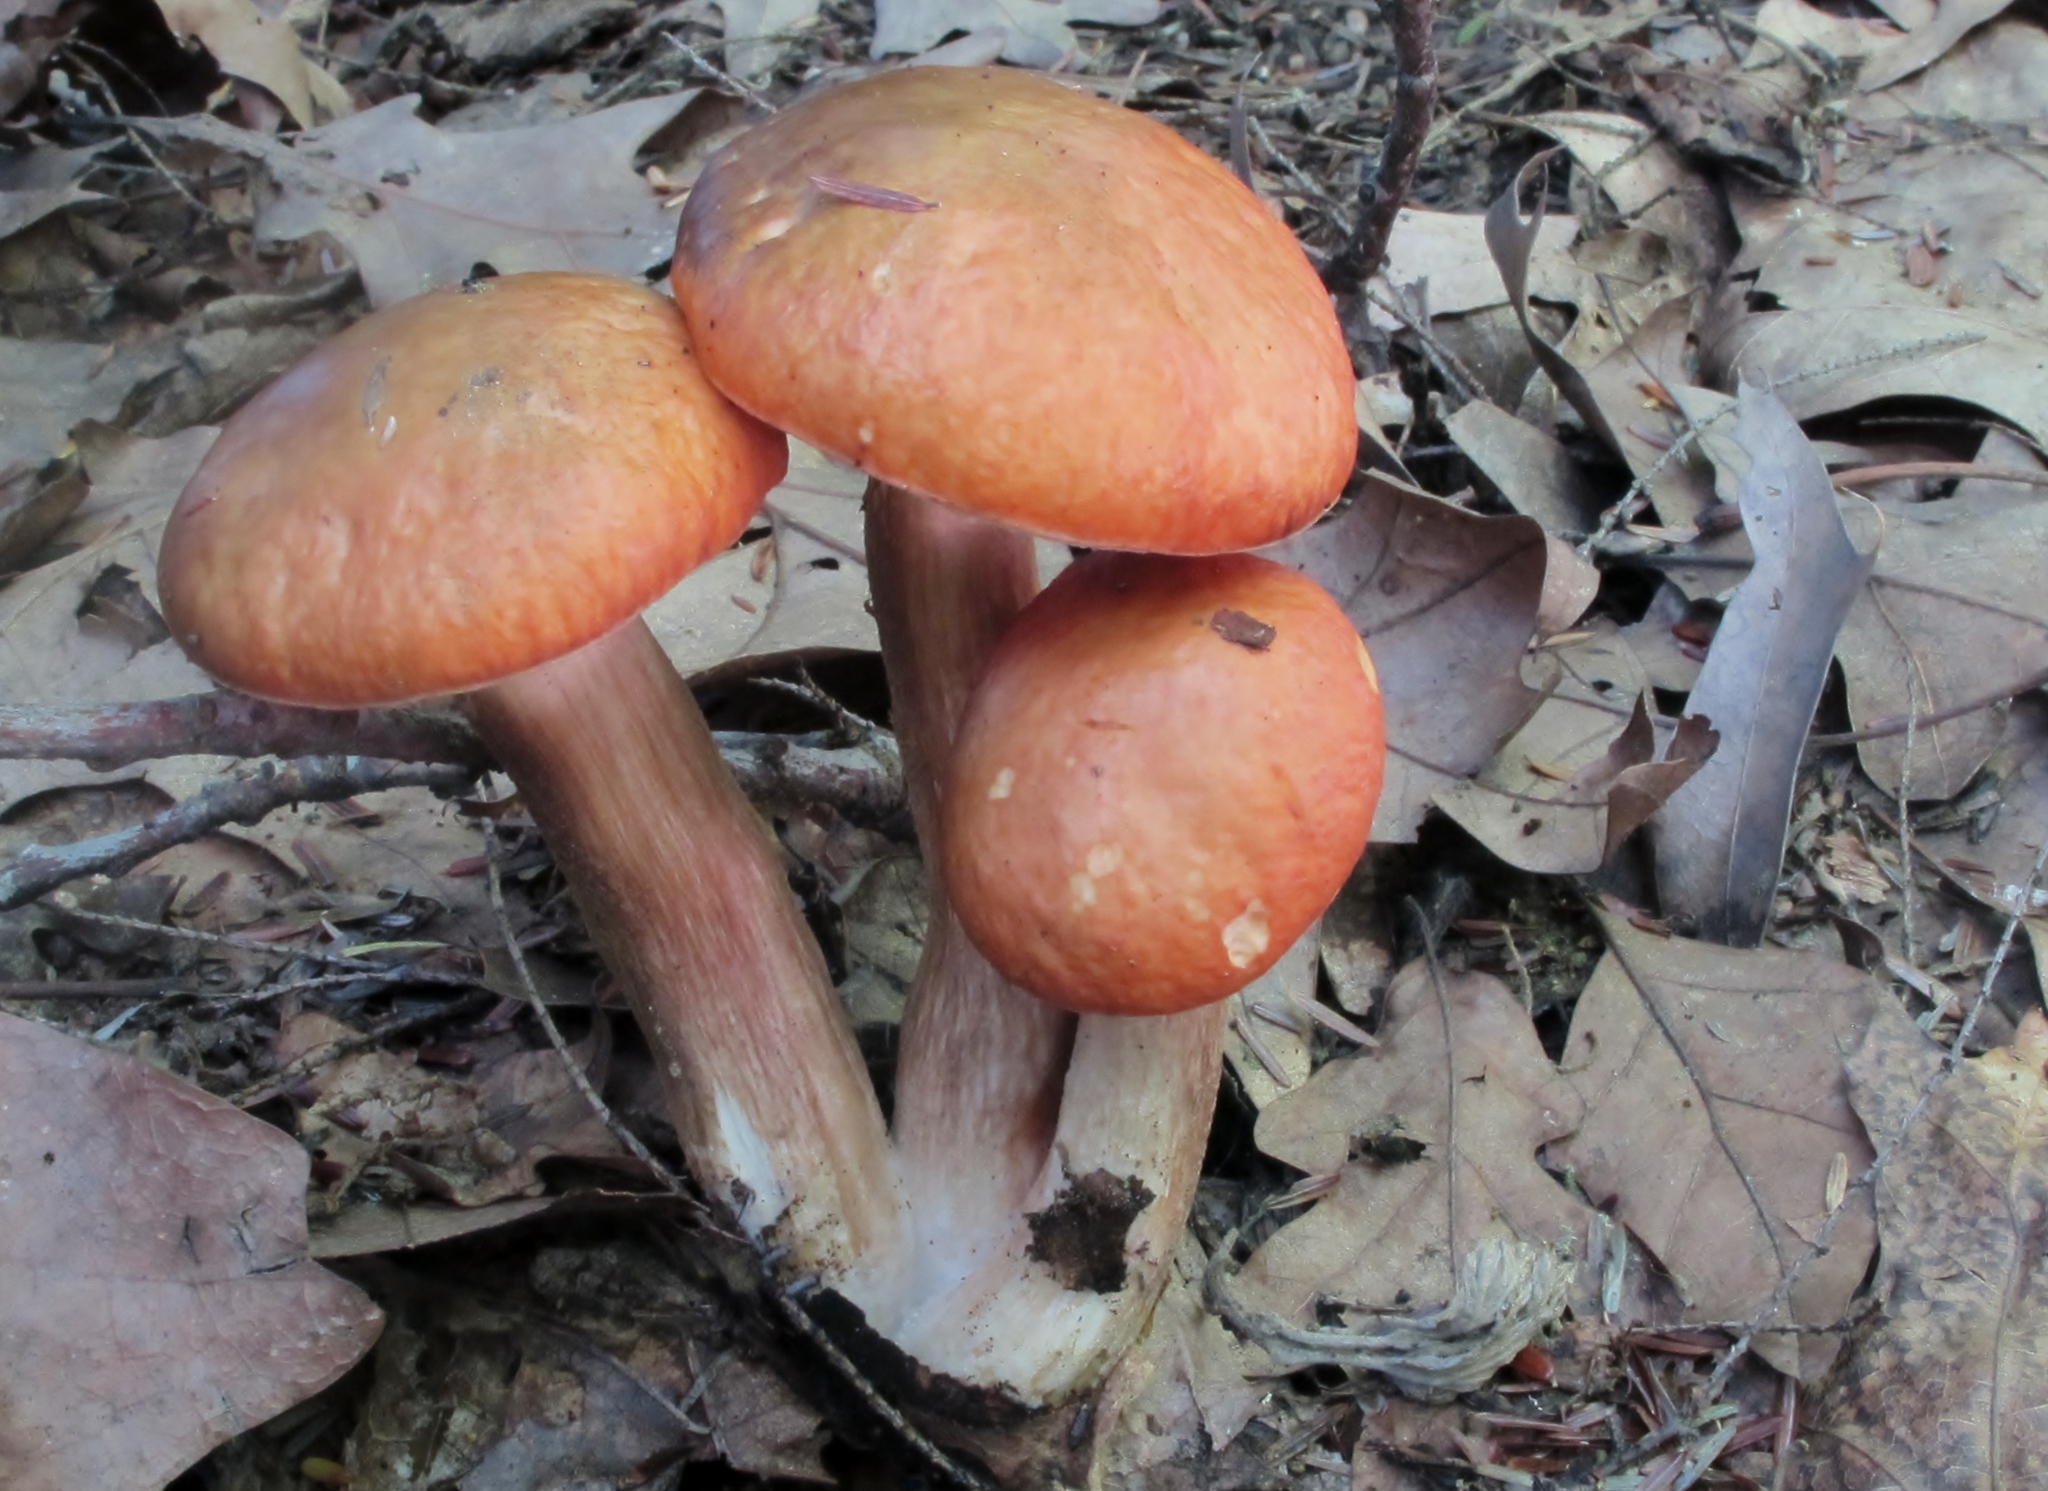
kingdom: Fungi
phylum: Basidiomycota
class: Agaricomycetes
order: Boletales
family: Boletaceae
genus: Leccinum
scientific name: Leccinum longicurvipes
